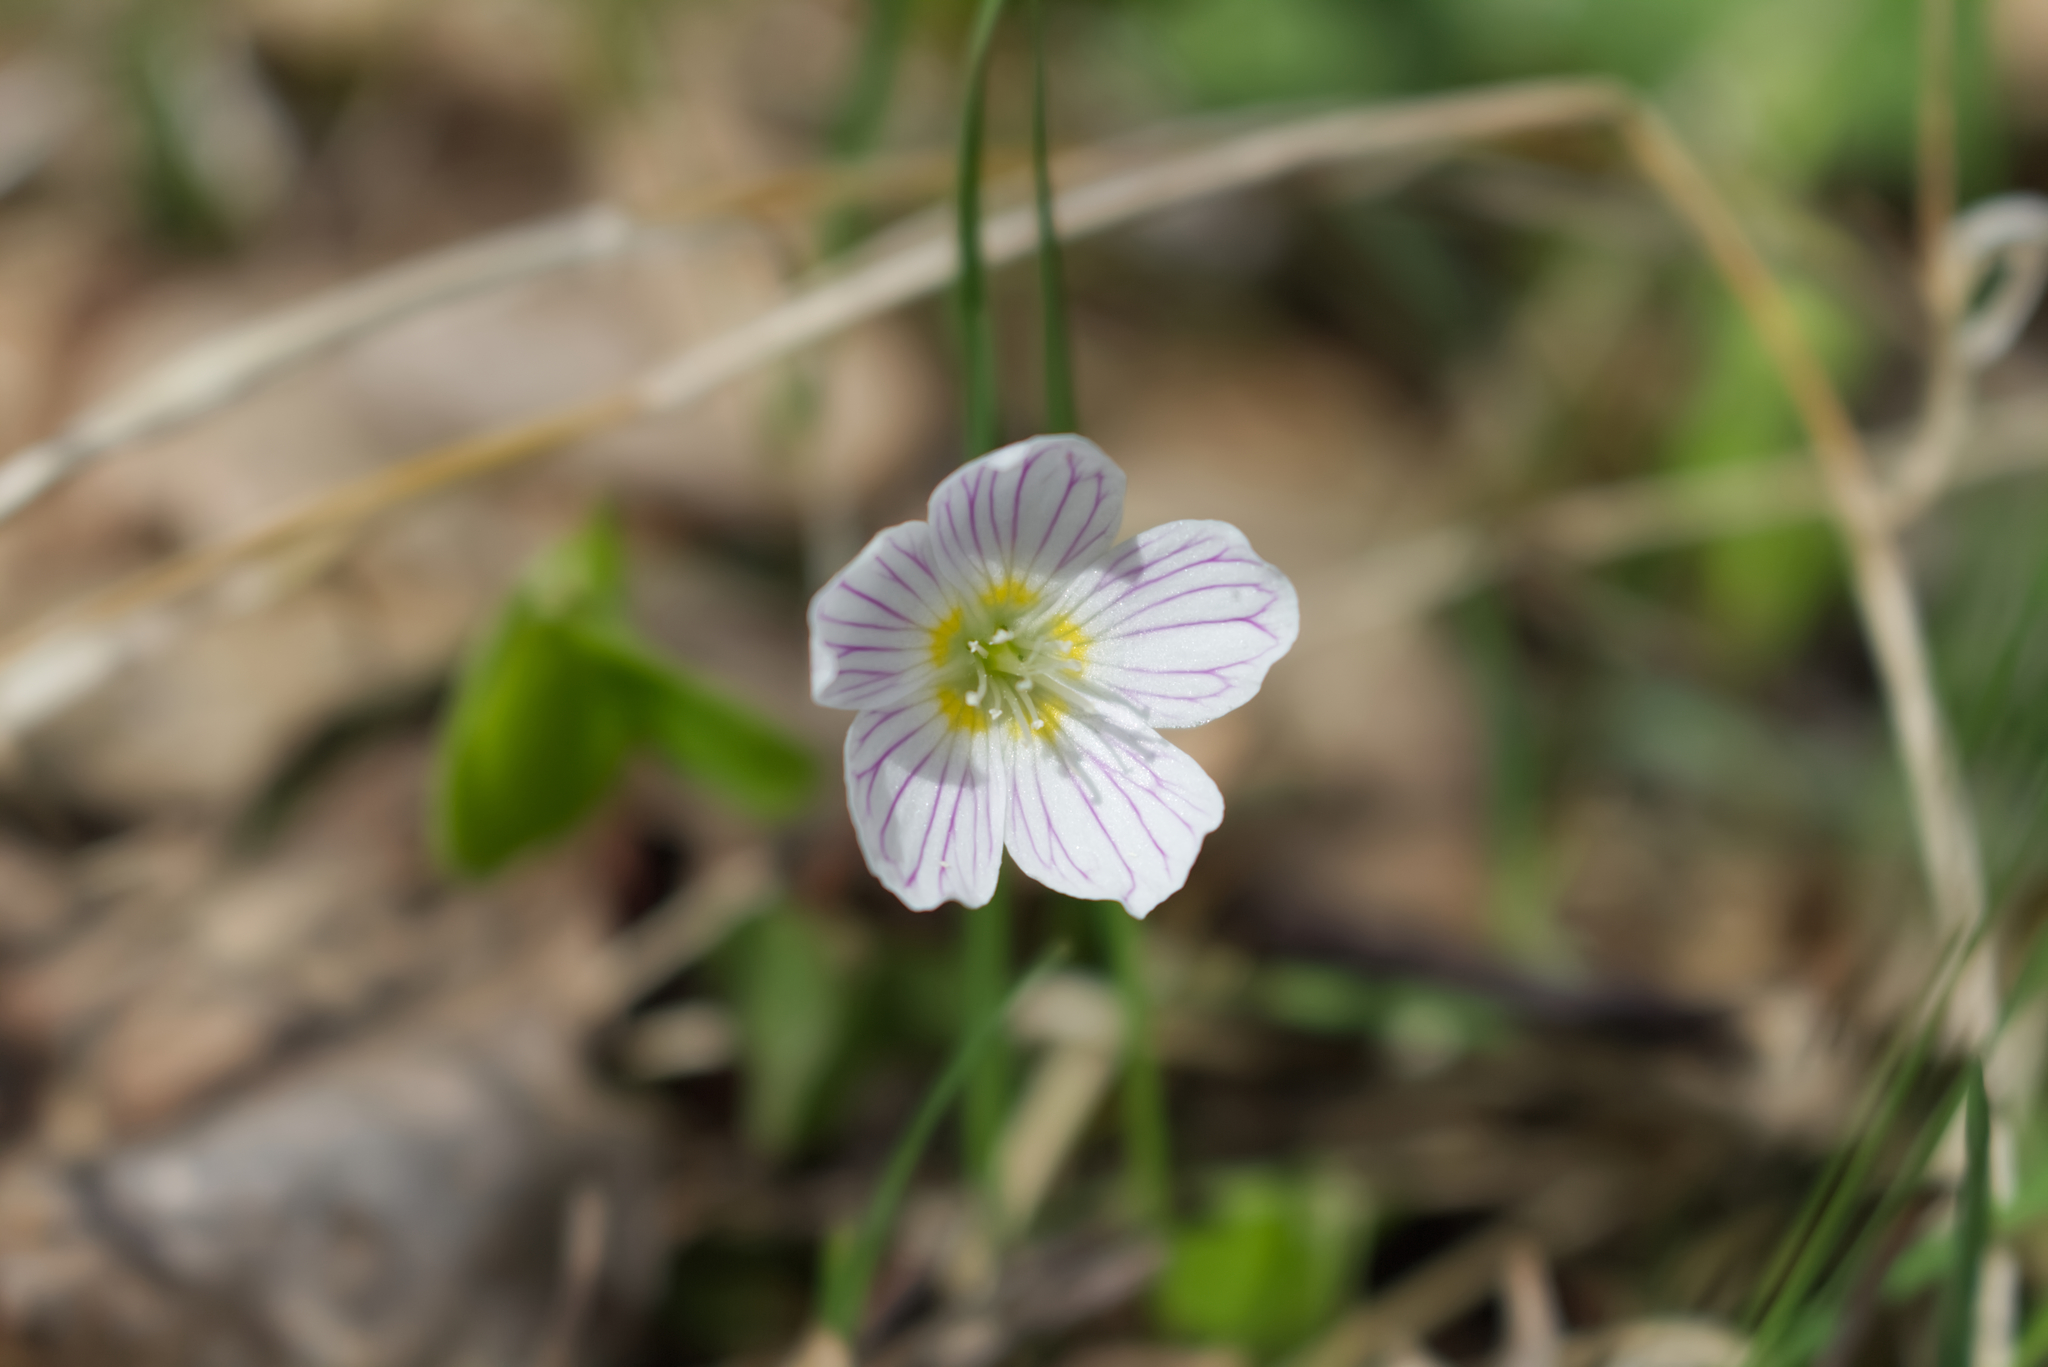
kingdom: Plantae
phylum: Tracheophyta
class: Magnoliopsida
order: Oxalidales
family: Oxalidaceae
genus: Oxalis
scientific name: Oxalis acetosella
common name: Wood-sorrel
